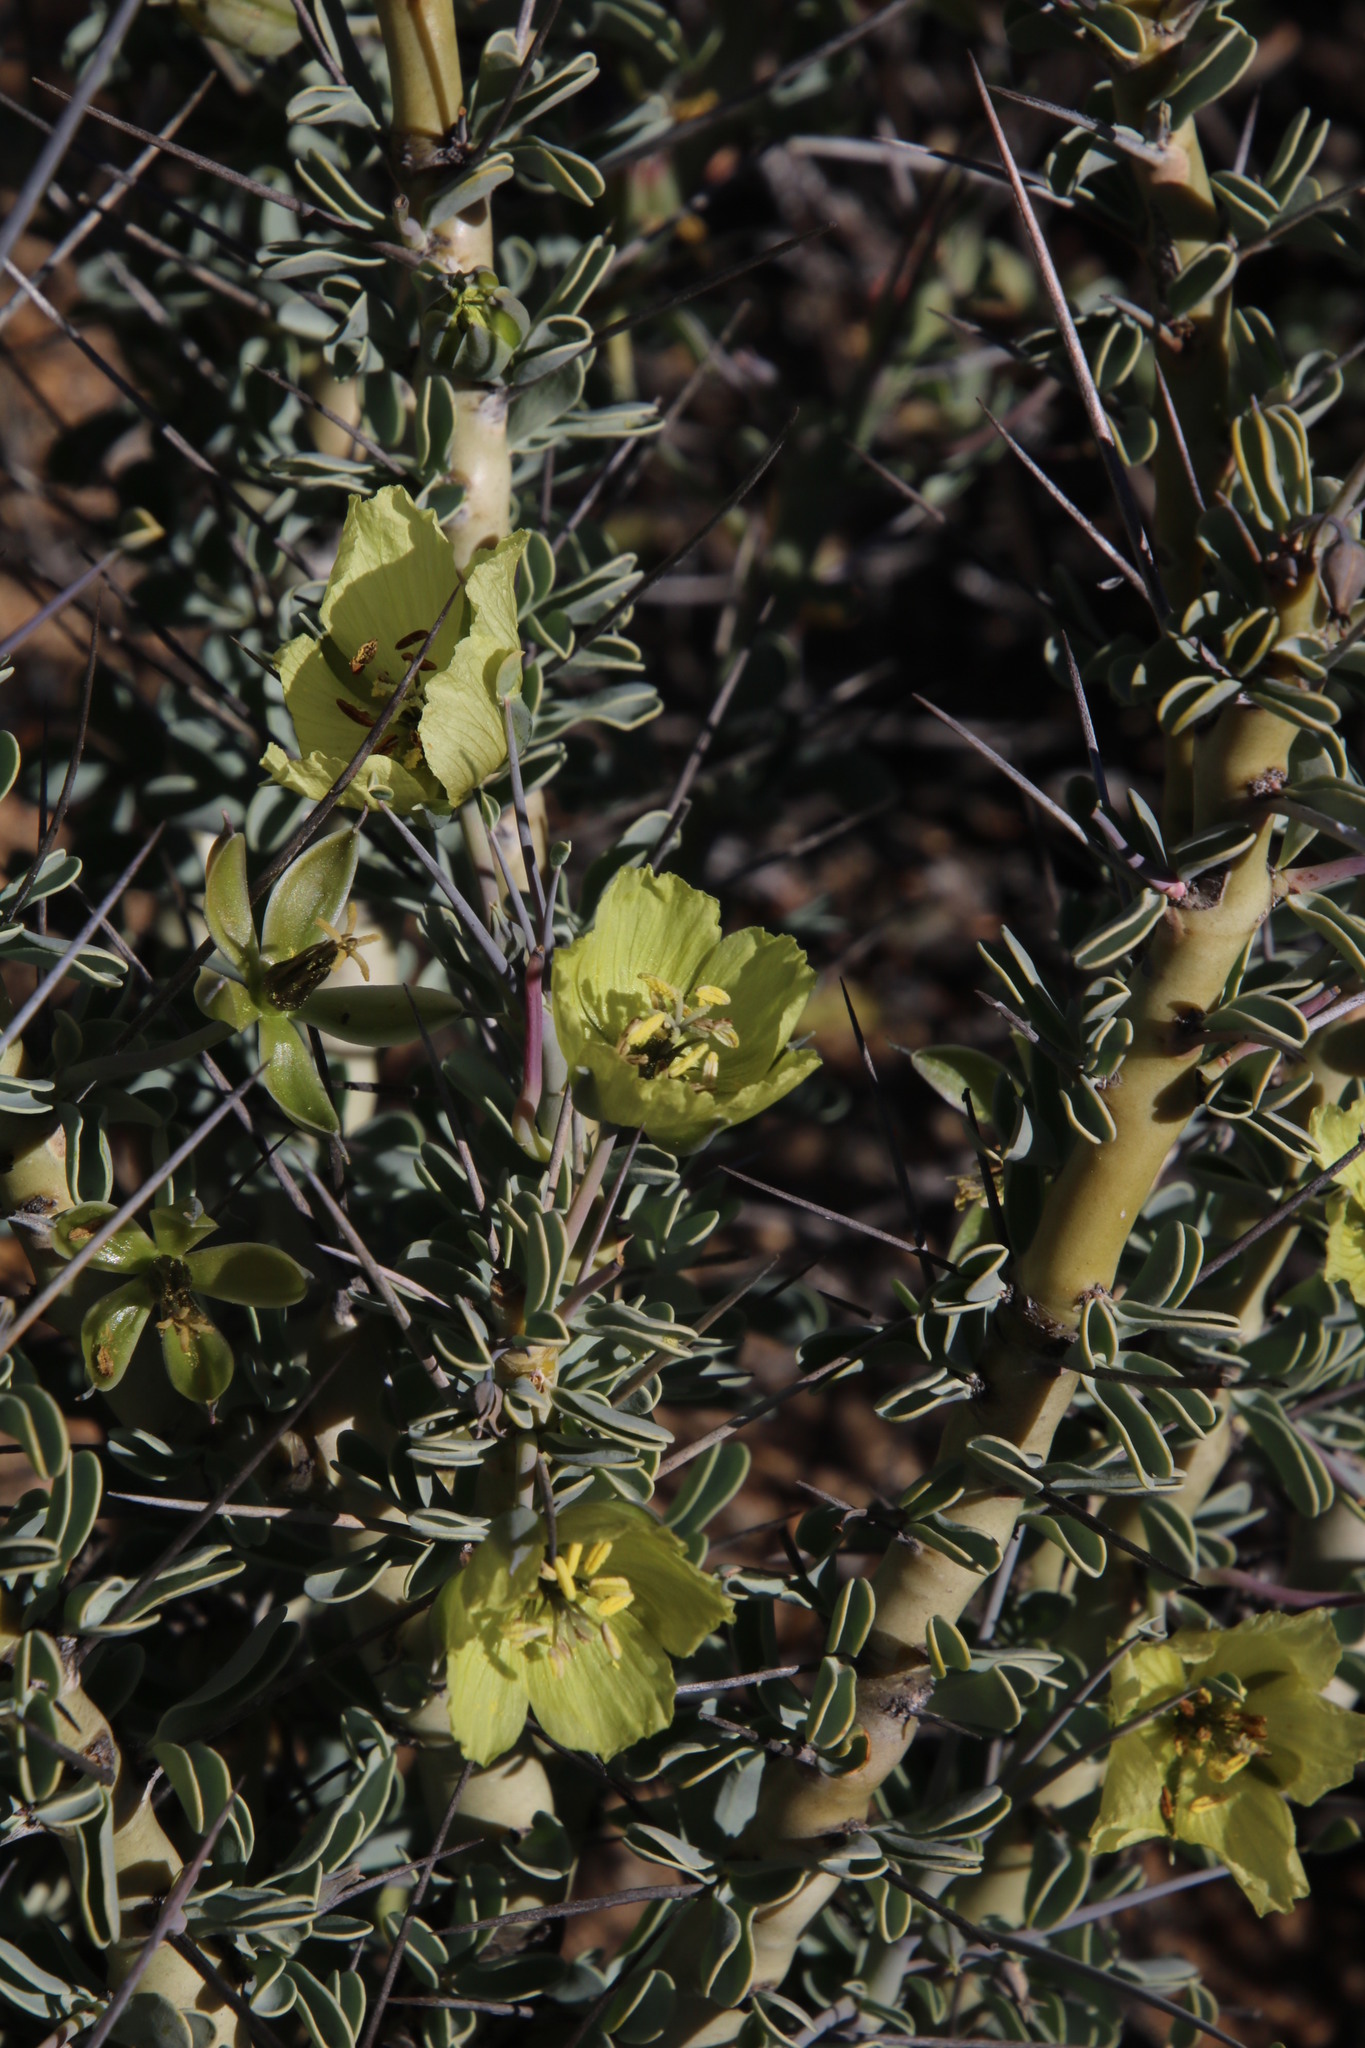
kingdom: Plantae
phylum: Tracheophyta
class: Magnoliopsida
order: Geraniales
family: Geraniaceae
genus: Monsonia
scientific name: Monsonia spinosa
